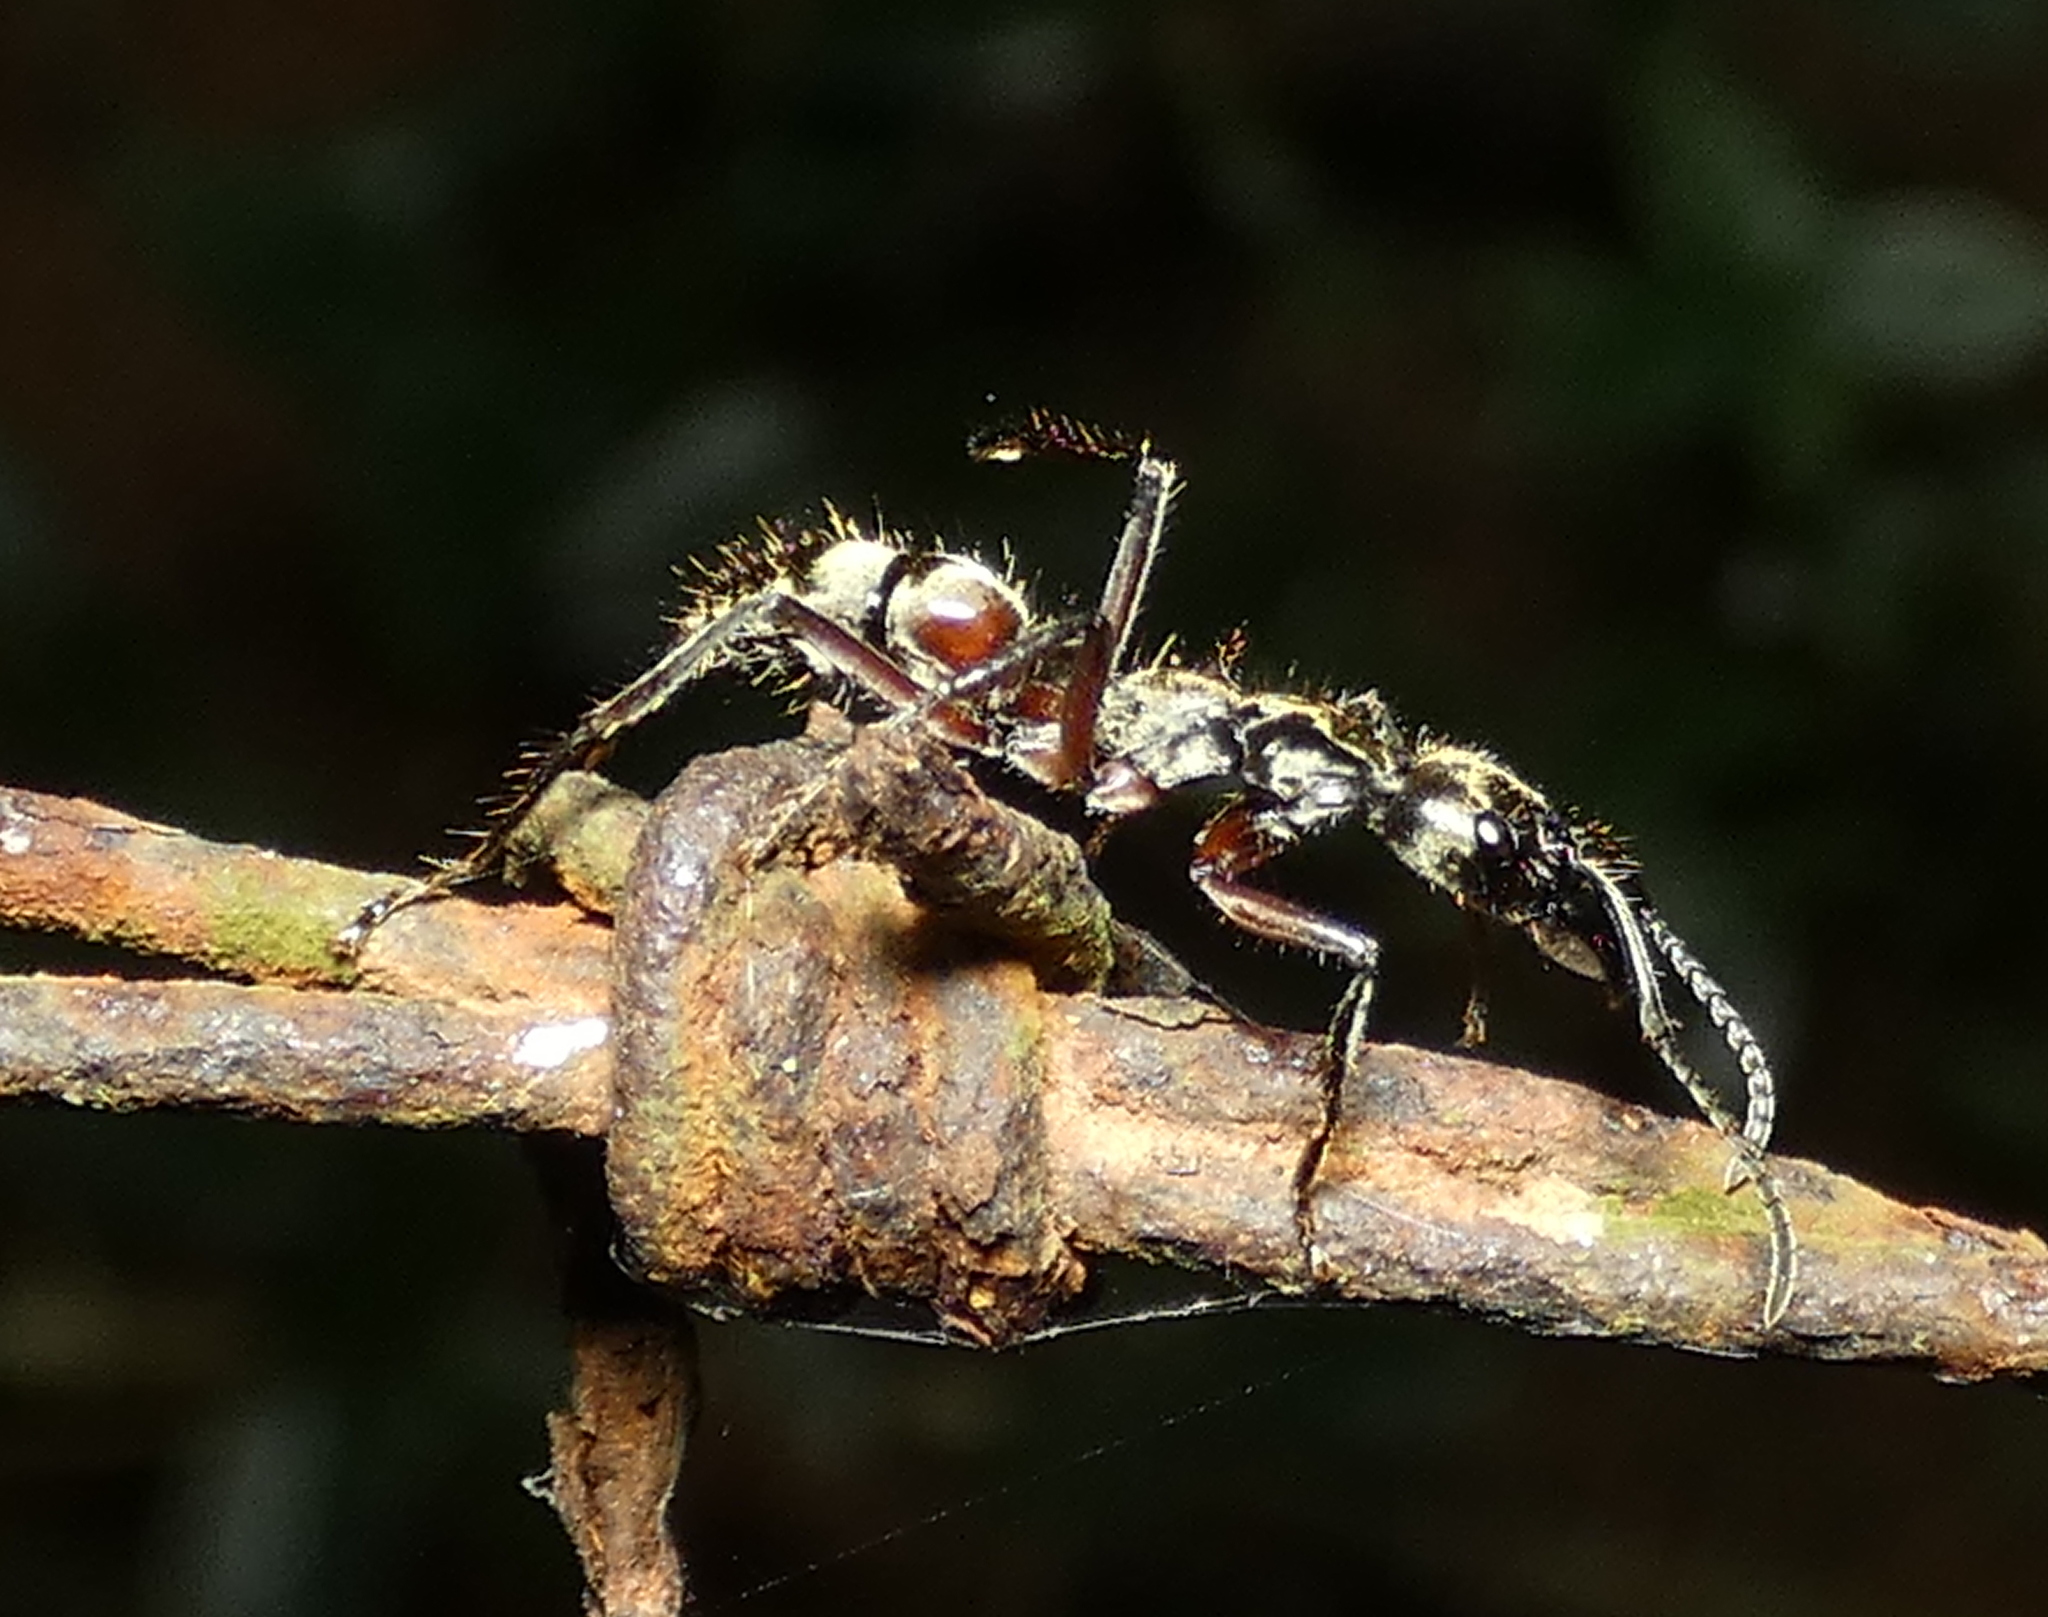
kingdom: Animalia
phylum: Arthropoda
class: Insecta
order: Hymenoptera
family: Formicidae
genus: Pachycondyla
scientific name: Pachycondyla villosa
